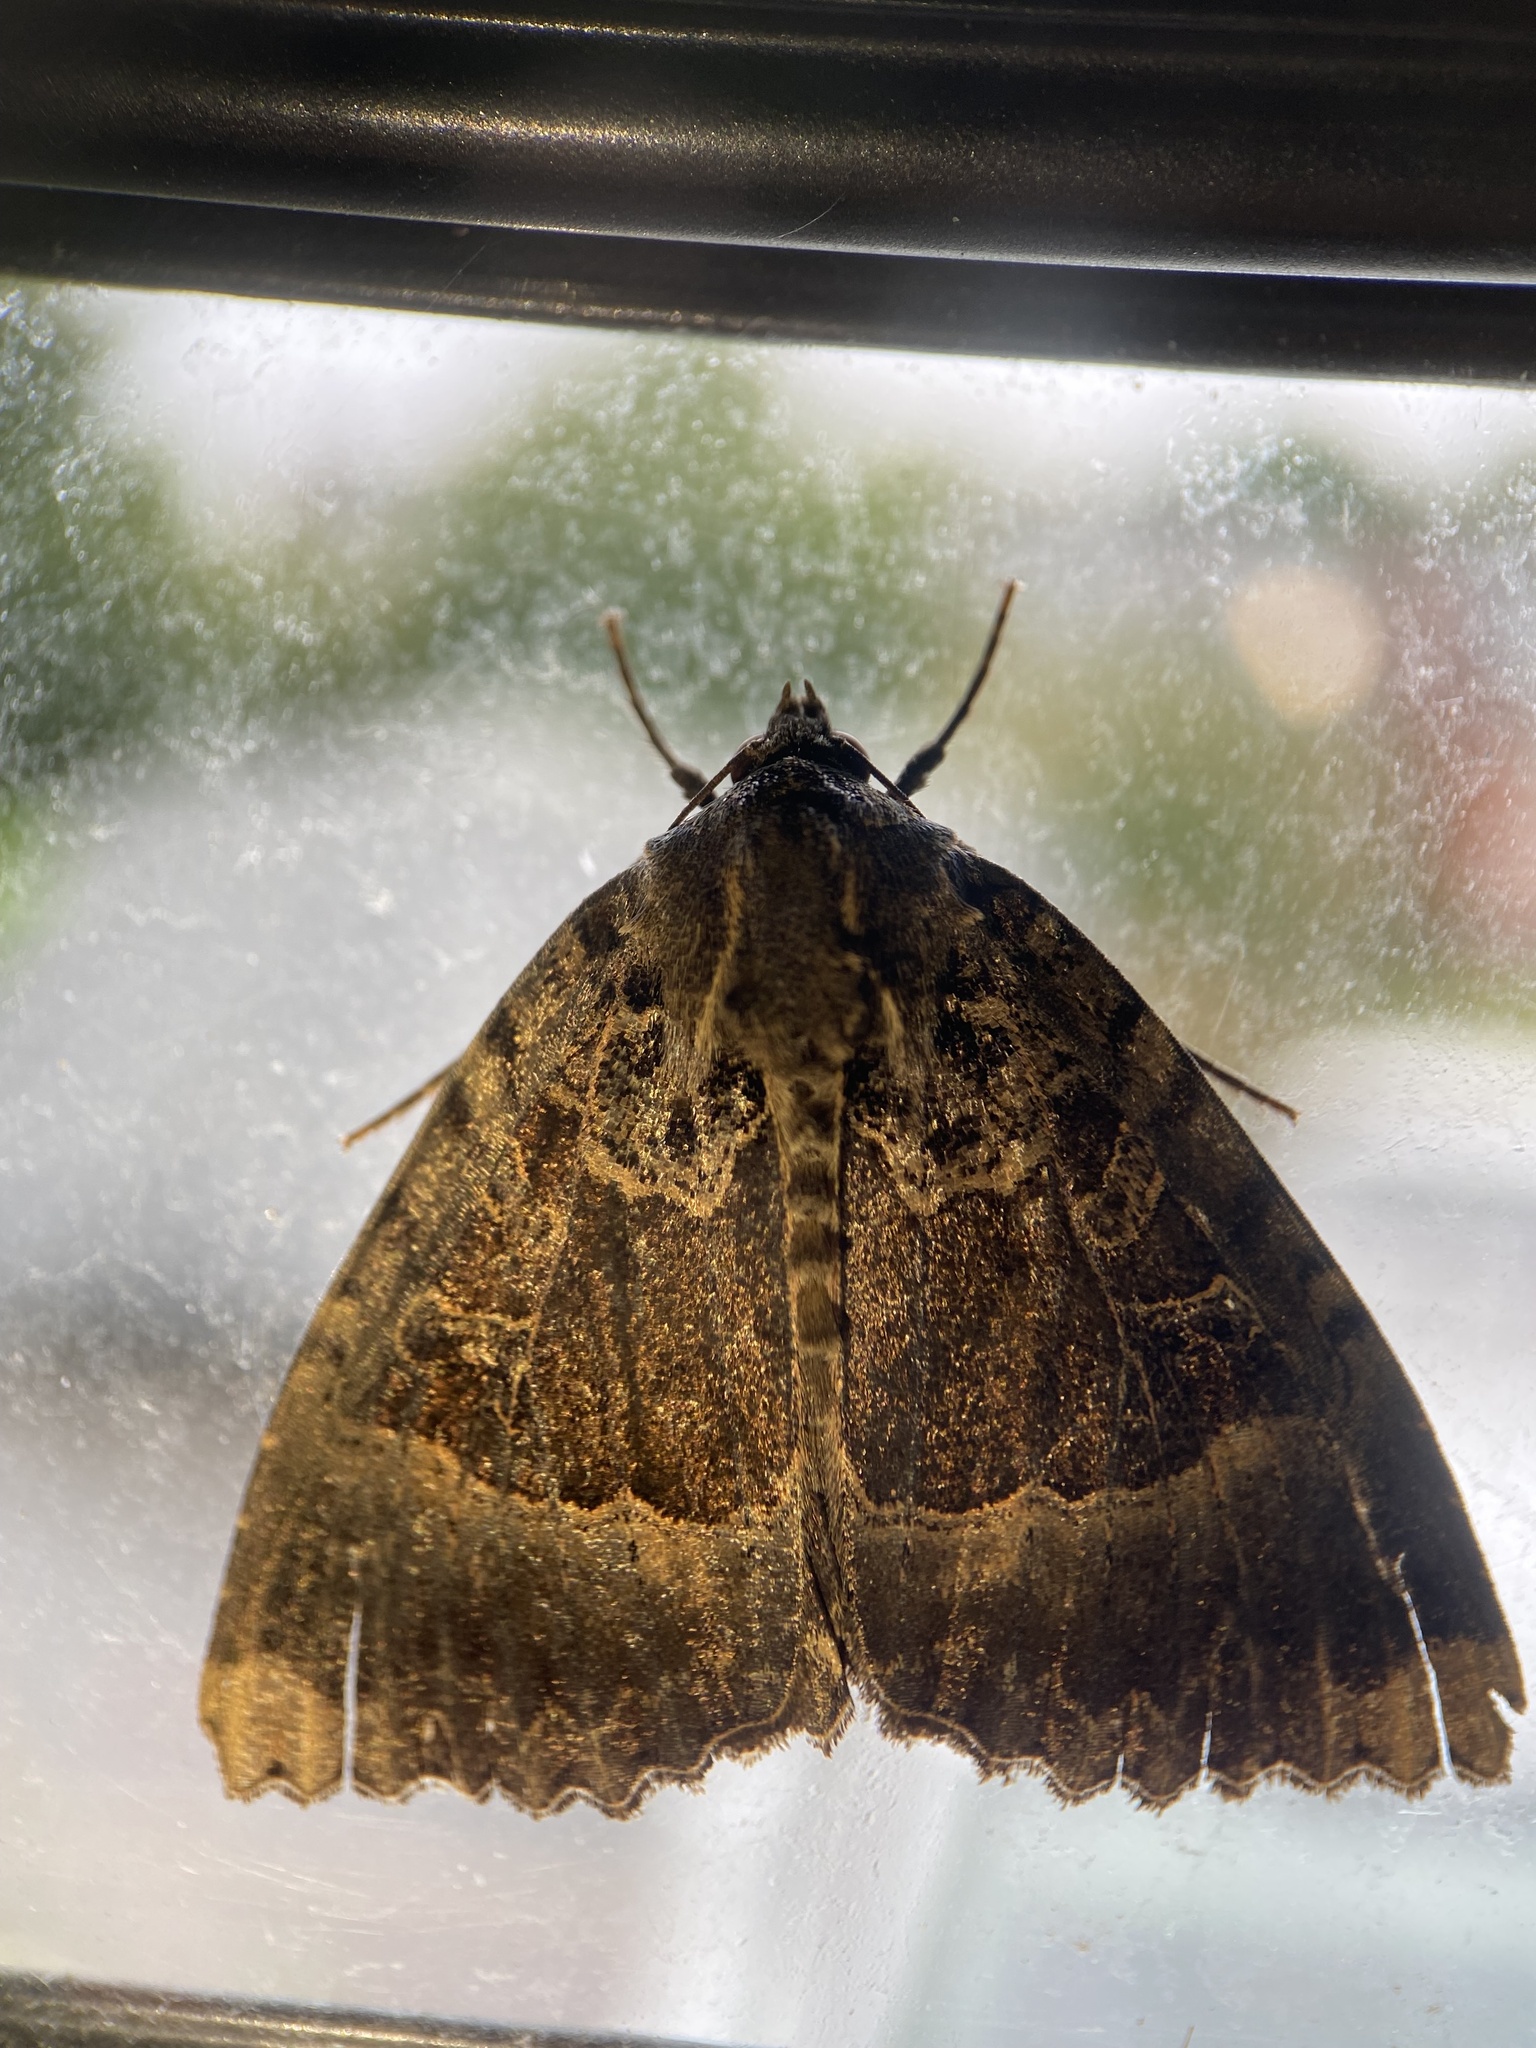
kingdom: Animalia
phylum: Arthropoda
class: Insecta
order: Lepidoptera
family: Noctuidae
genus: Mormo
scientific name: Mormo maura
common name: Old lady
